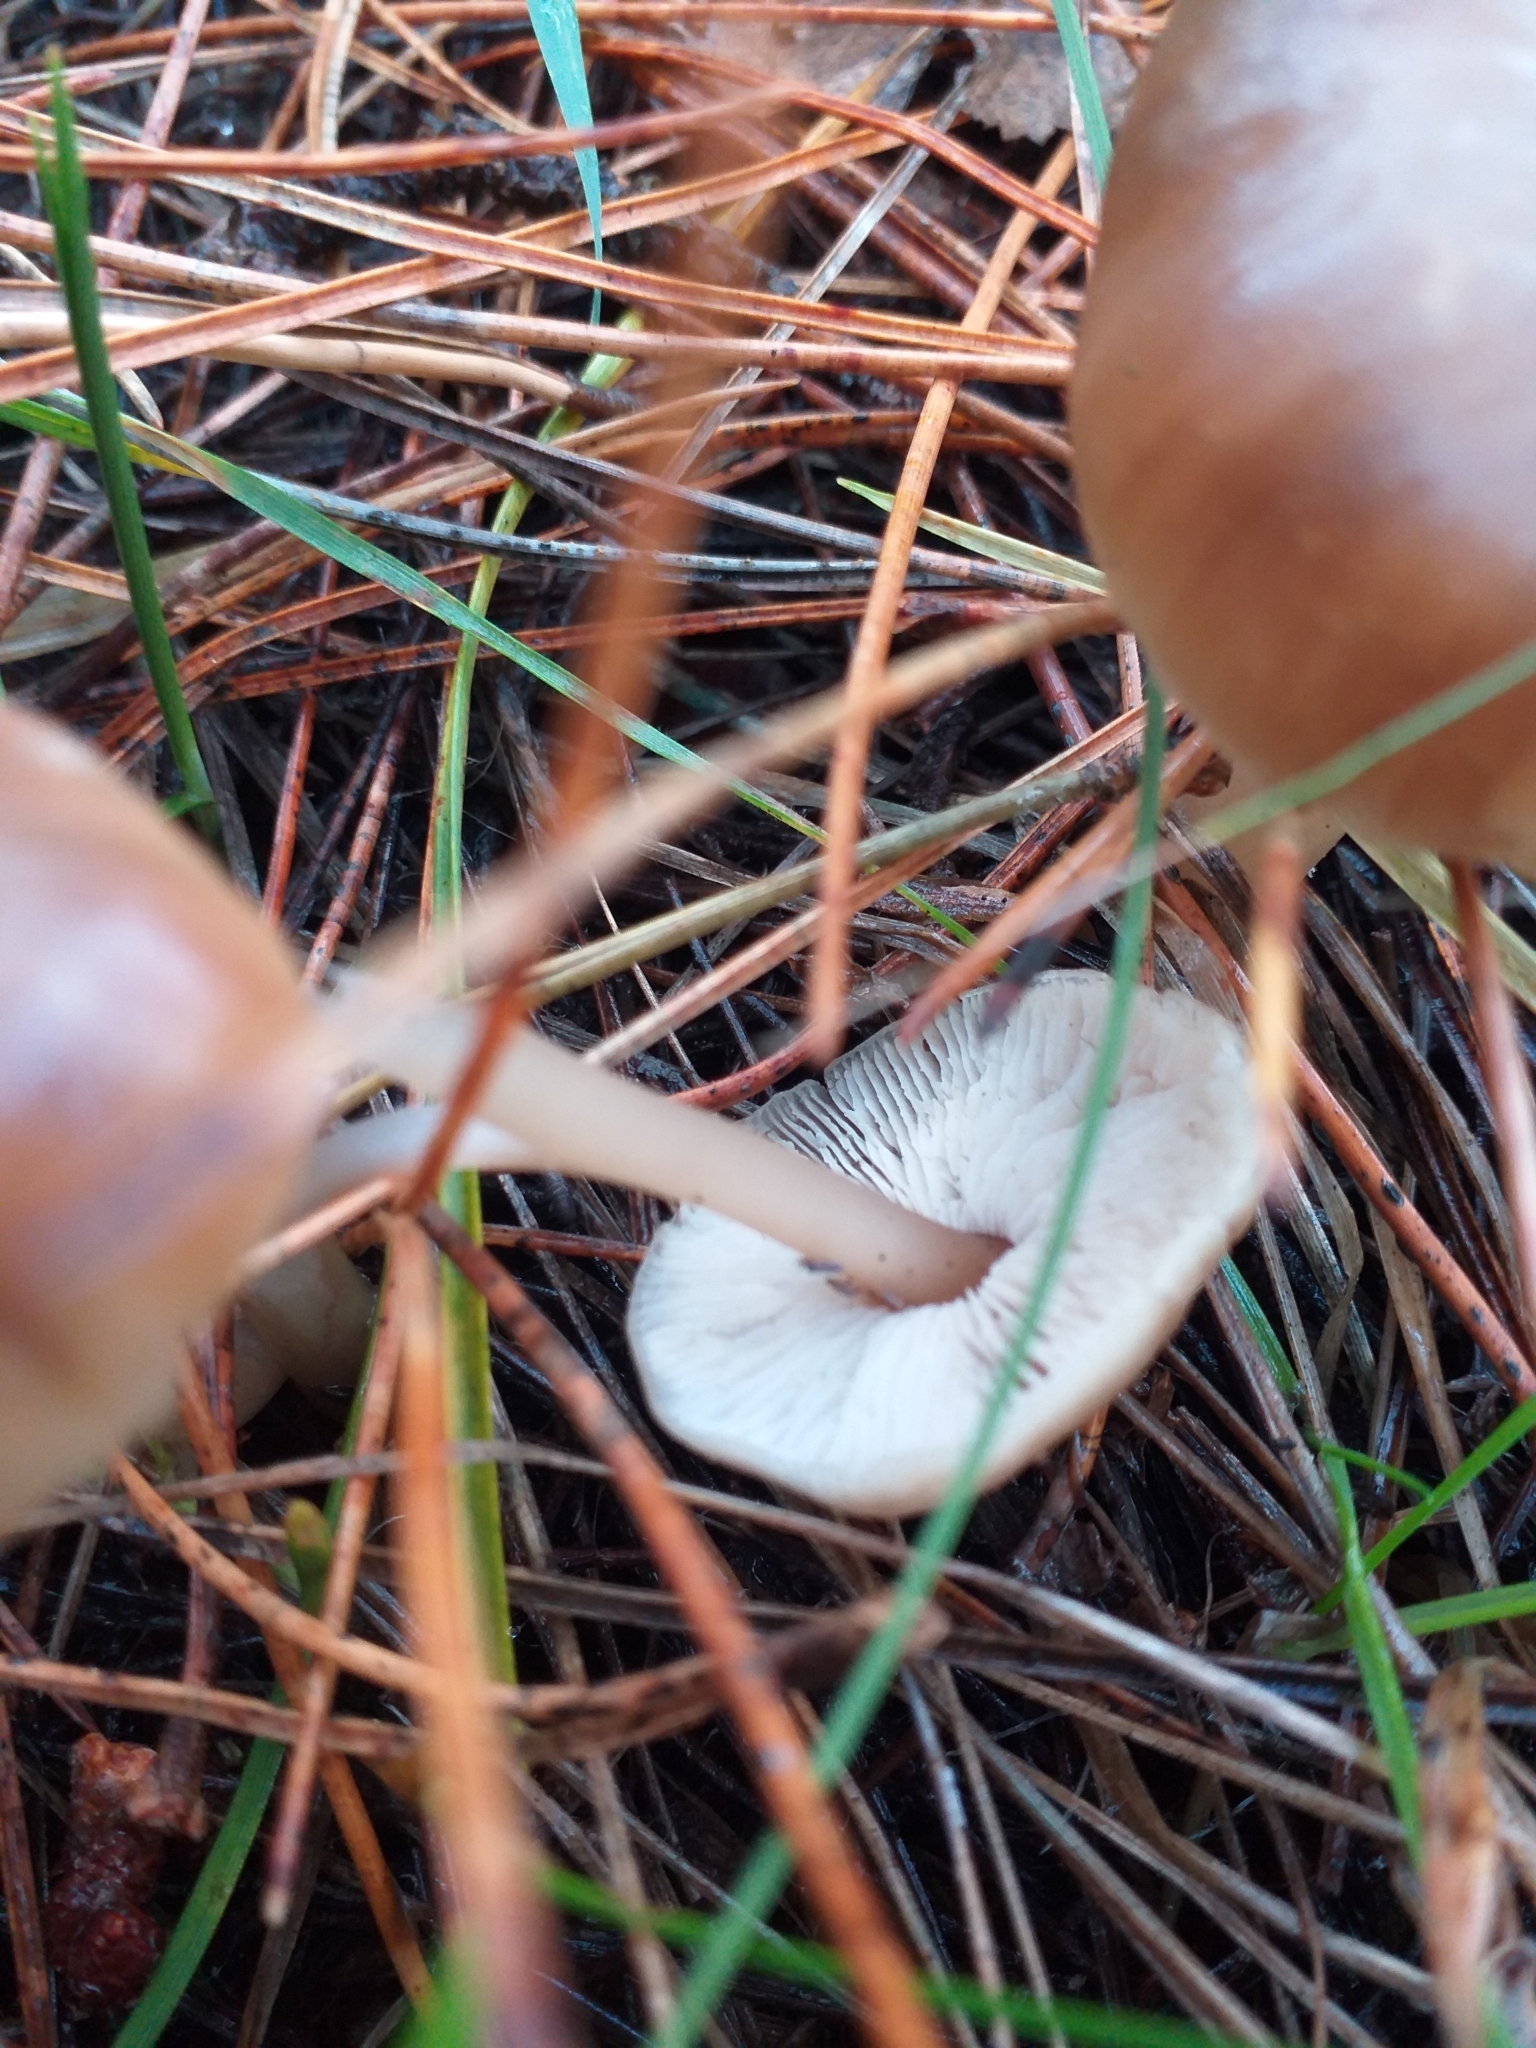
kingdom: Fungi
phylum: Basidiomycota
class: Agaricomycetes
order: Agaricales
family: Tricholomataceae
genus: Gamundia
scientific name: Gamundia striatula
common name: Lined meadowcap
